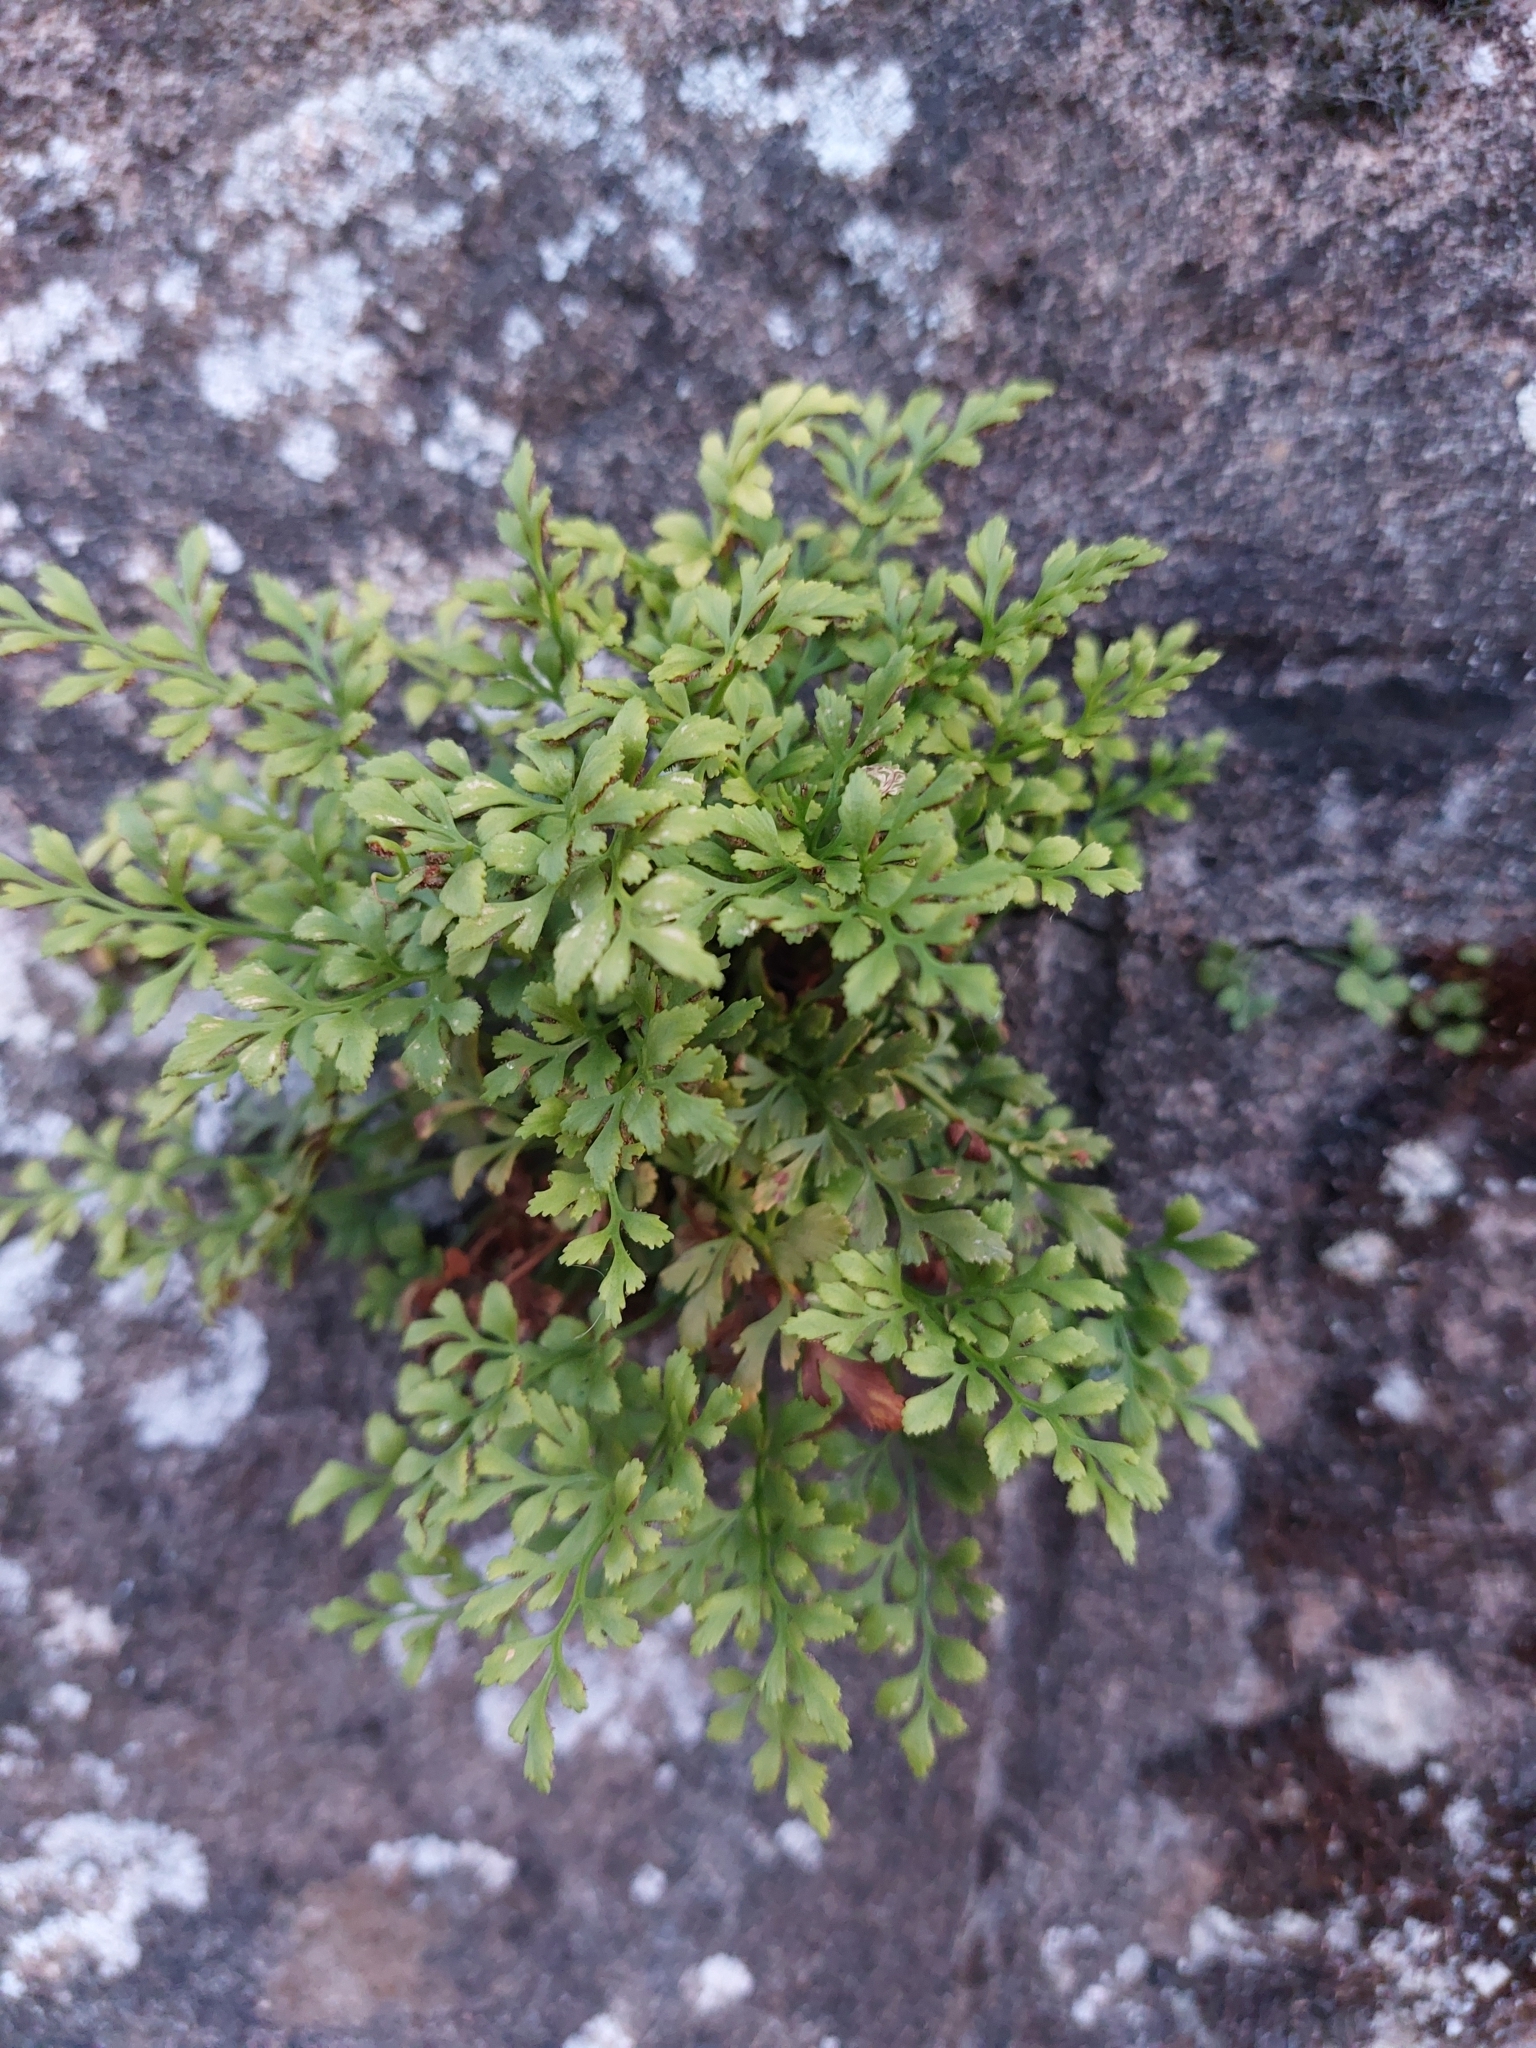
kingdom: Plantae
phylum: Tracheophyta
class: Polypodiopsida
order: Polypodiales
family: Aspleniaceae
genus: Asplenium
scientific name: Asplenium ruta-muraria
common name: Wall-rue
